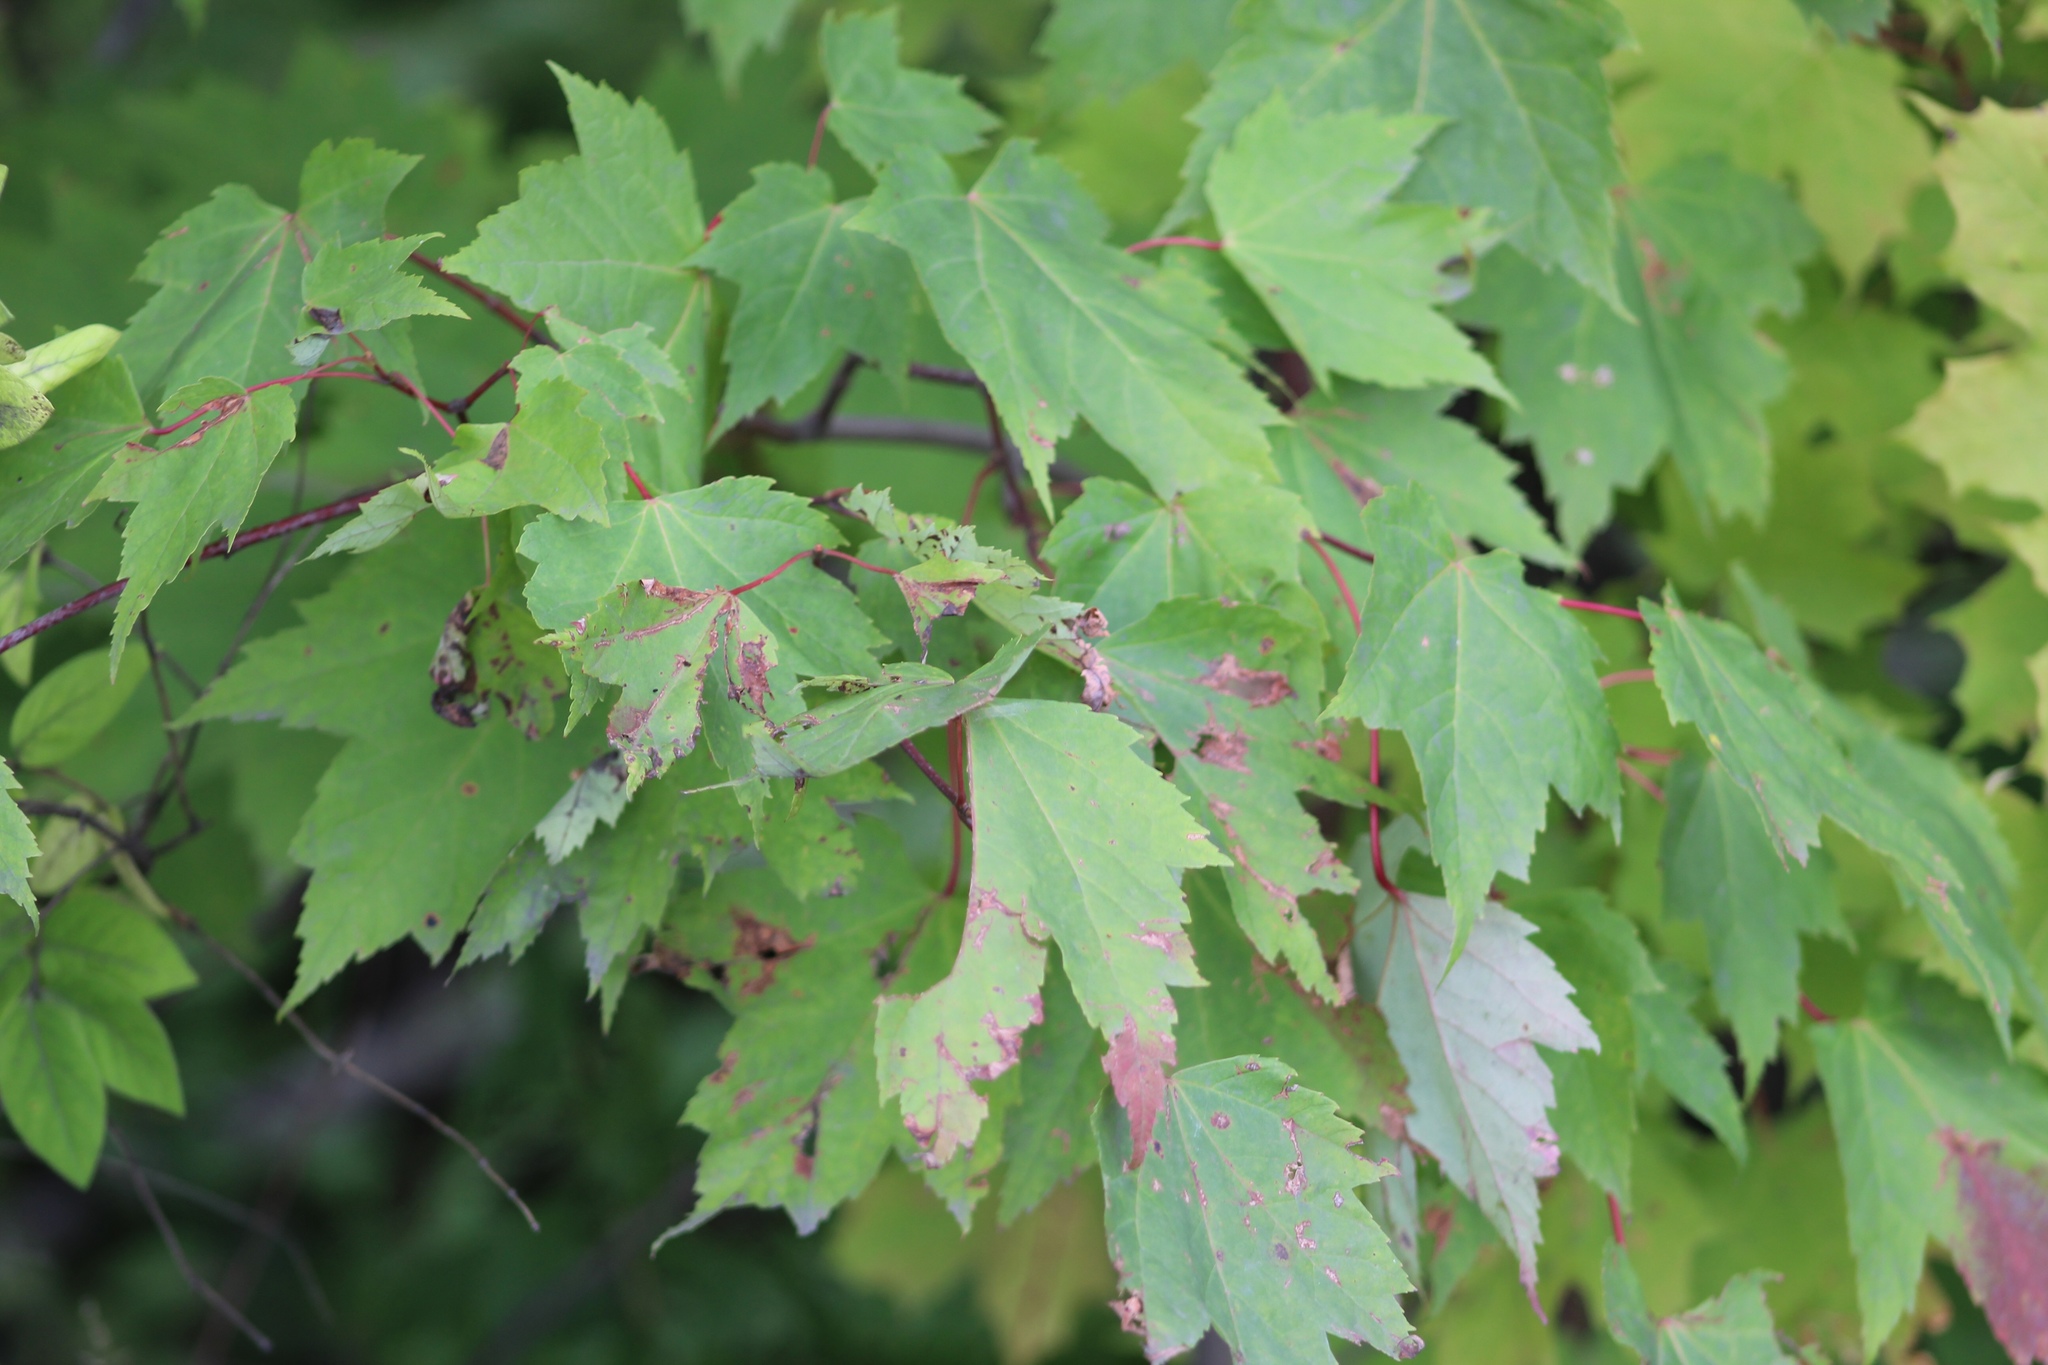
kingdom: Plantae
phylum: Tracheophyta
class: Magnoliopsida
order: Sapindales
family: Sapindaceae
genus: Acer
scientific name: Acer rubrum
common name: Red maple
